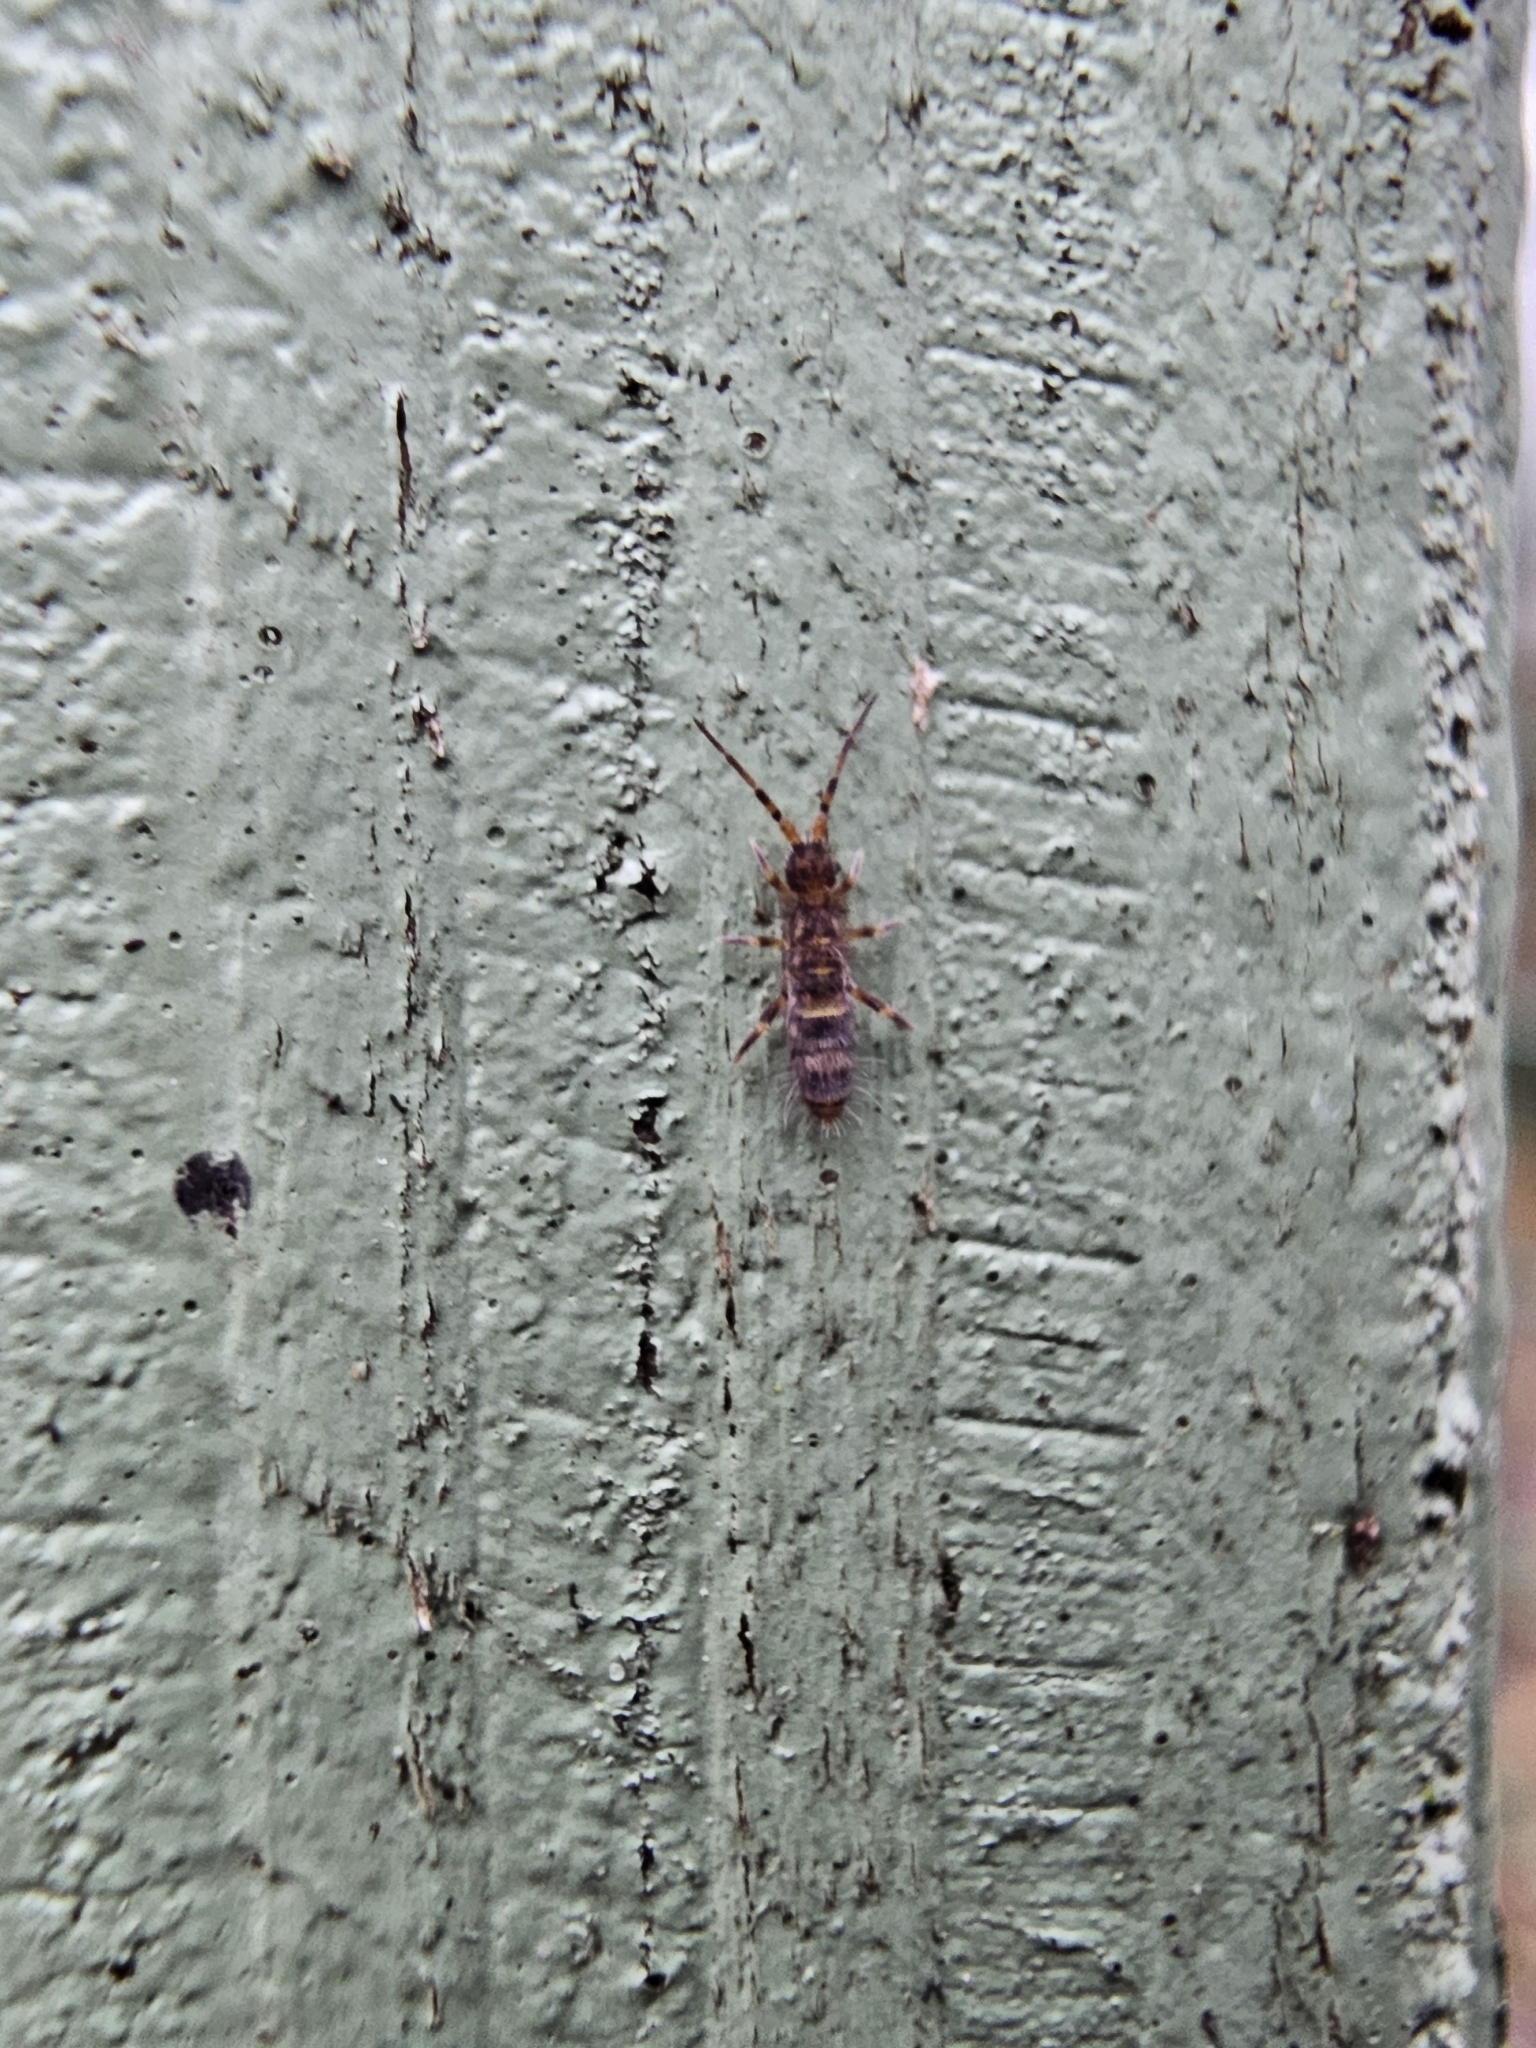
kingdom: Animalia
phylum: Arthropoda
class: Collembola
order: Entomobryomorpha
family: Orchesellidae
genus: Orchesella
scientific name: Orchesella cincta
